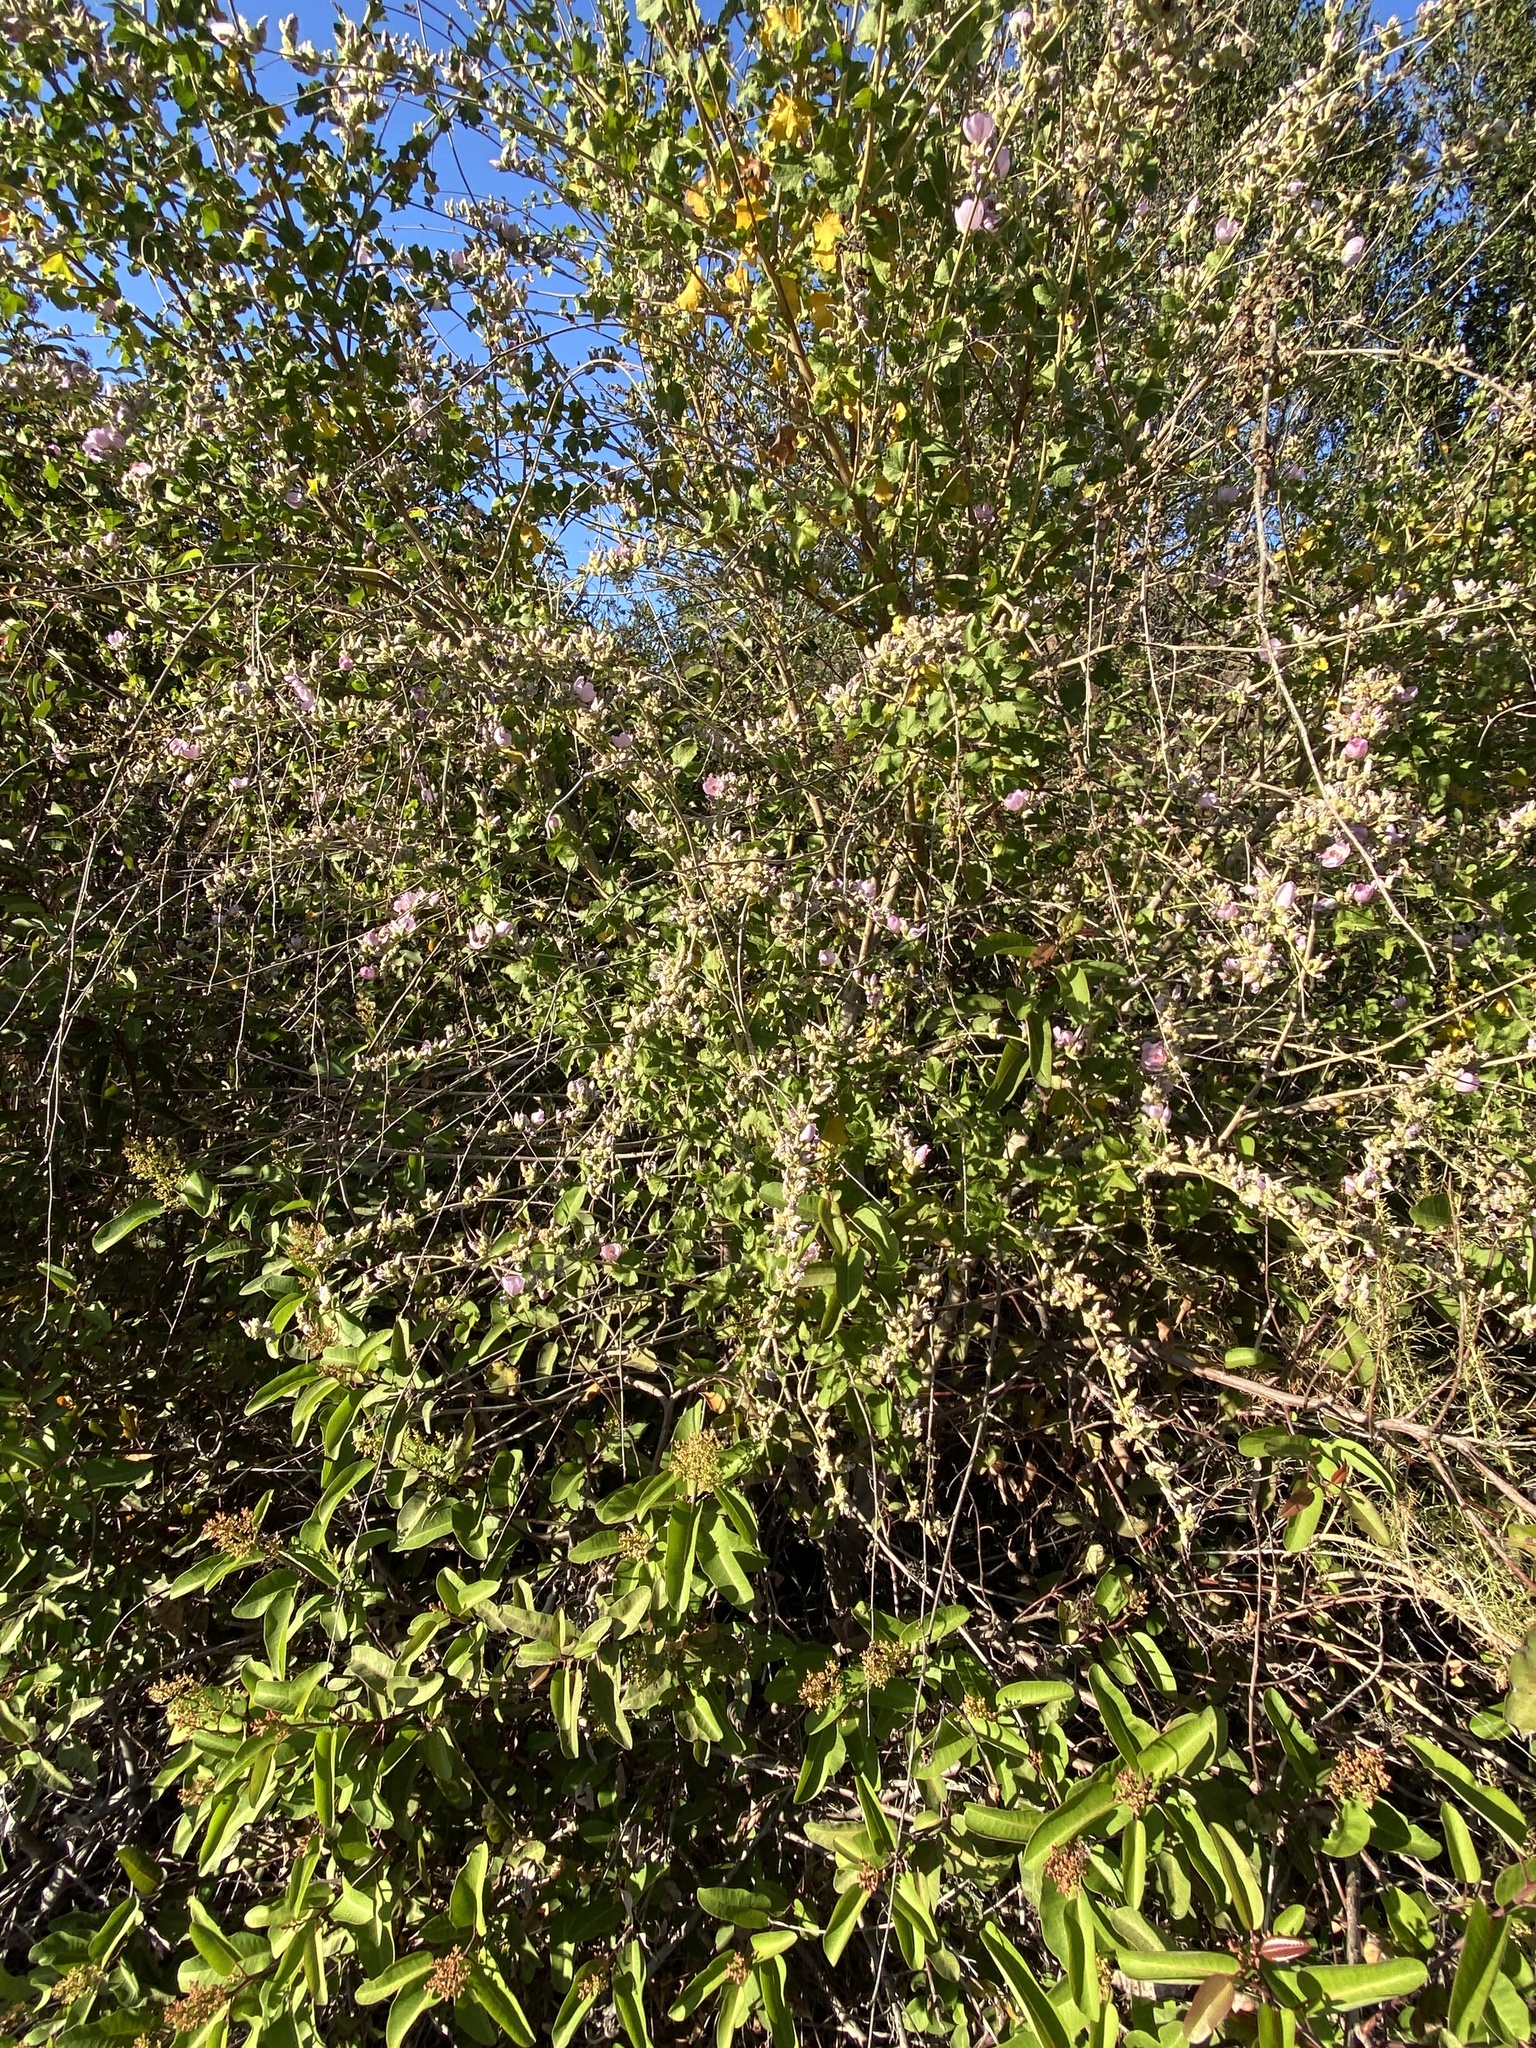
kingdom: Plantae
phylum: Tracheophyta
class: Magnoliopsida
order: Malvales
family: Malvaceae
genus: Malacothamnus
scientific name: Malacothamnus fasciculatus
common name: Sant cruz island bush-mallow
